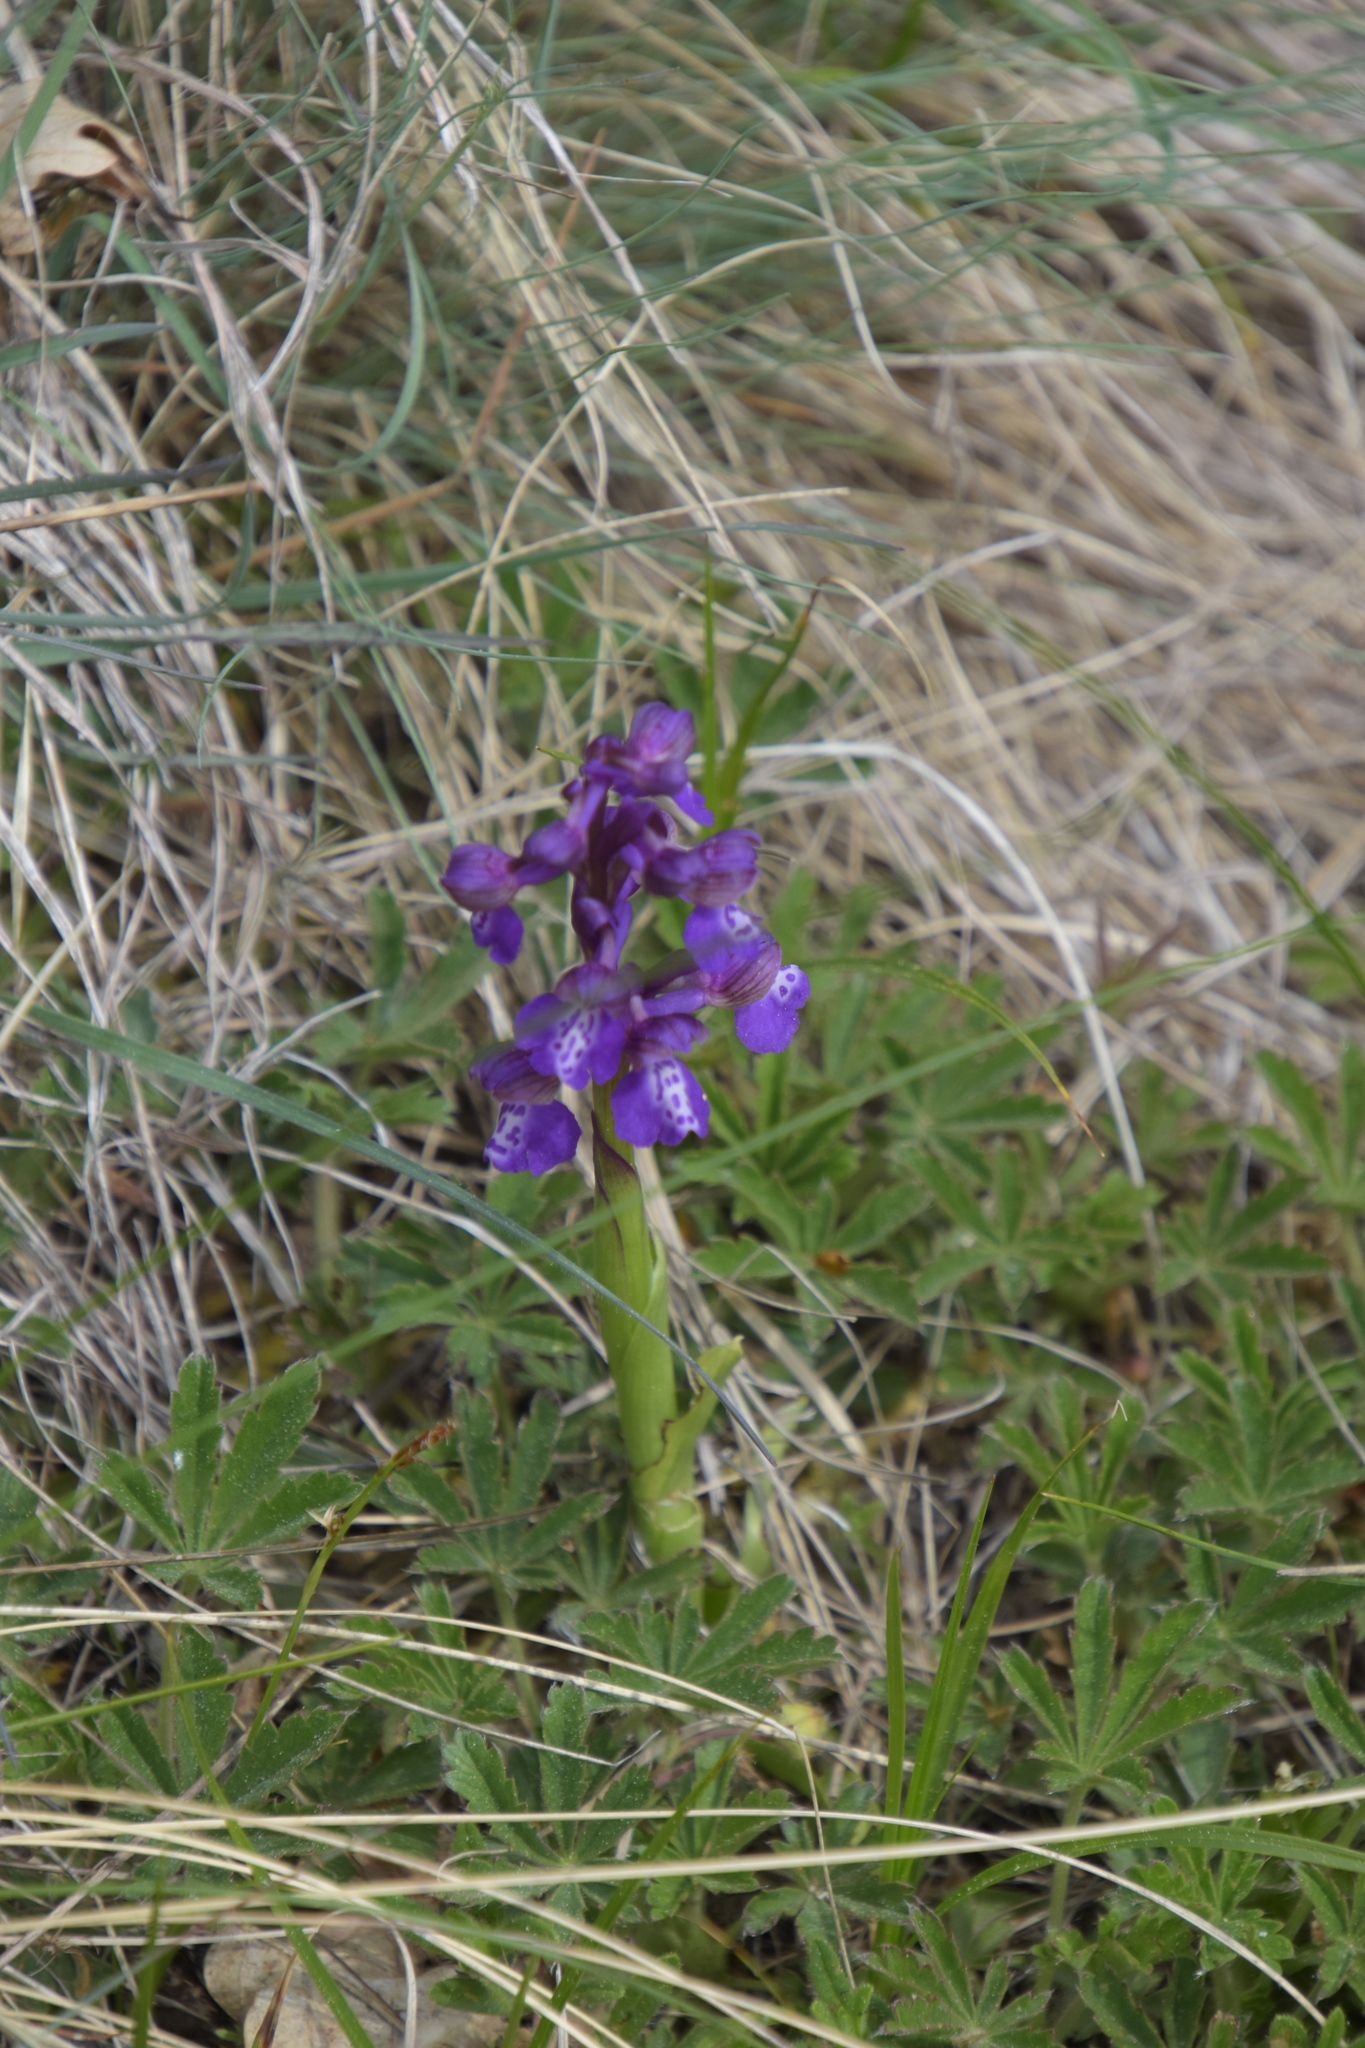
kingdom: Plantae
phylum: Tracheophyta
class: Liliopsida
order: Asparagales
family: Orchidaceae
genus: Anacamptis
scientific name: Anacamptis morio
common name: Green-winged orchid
